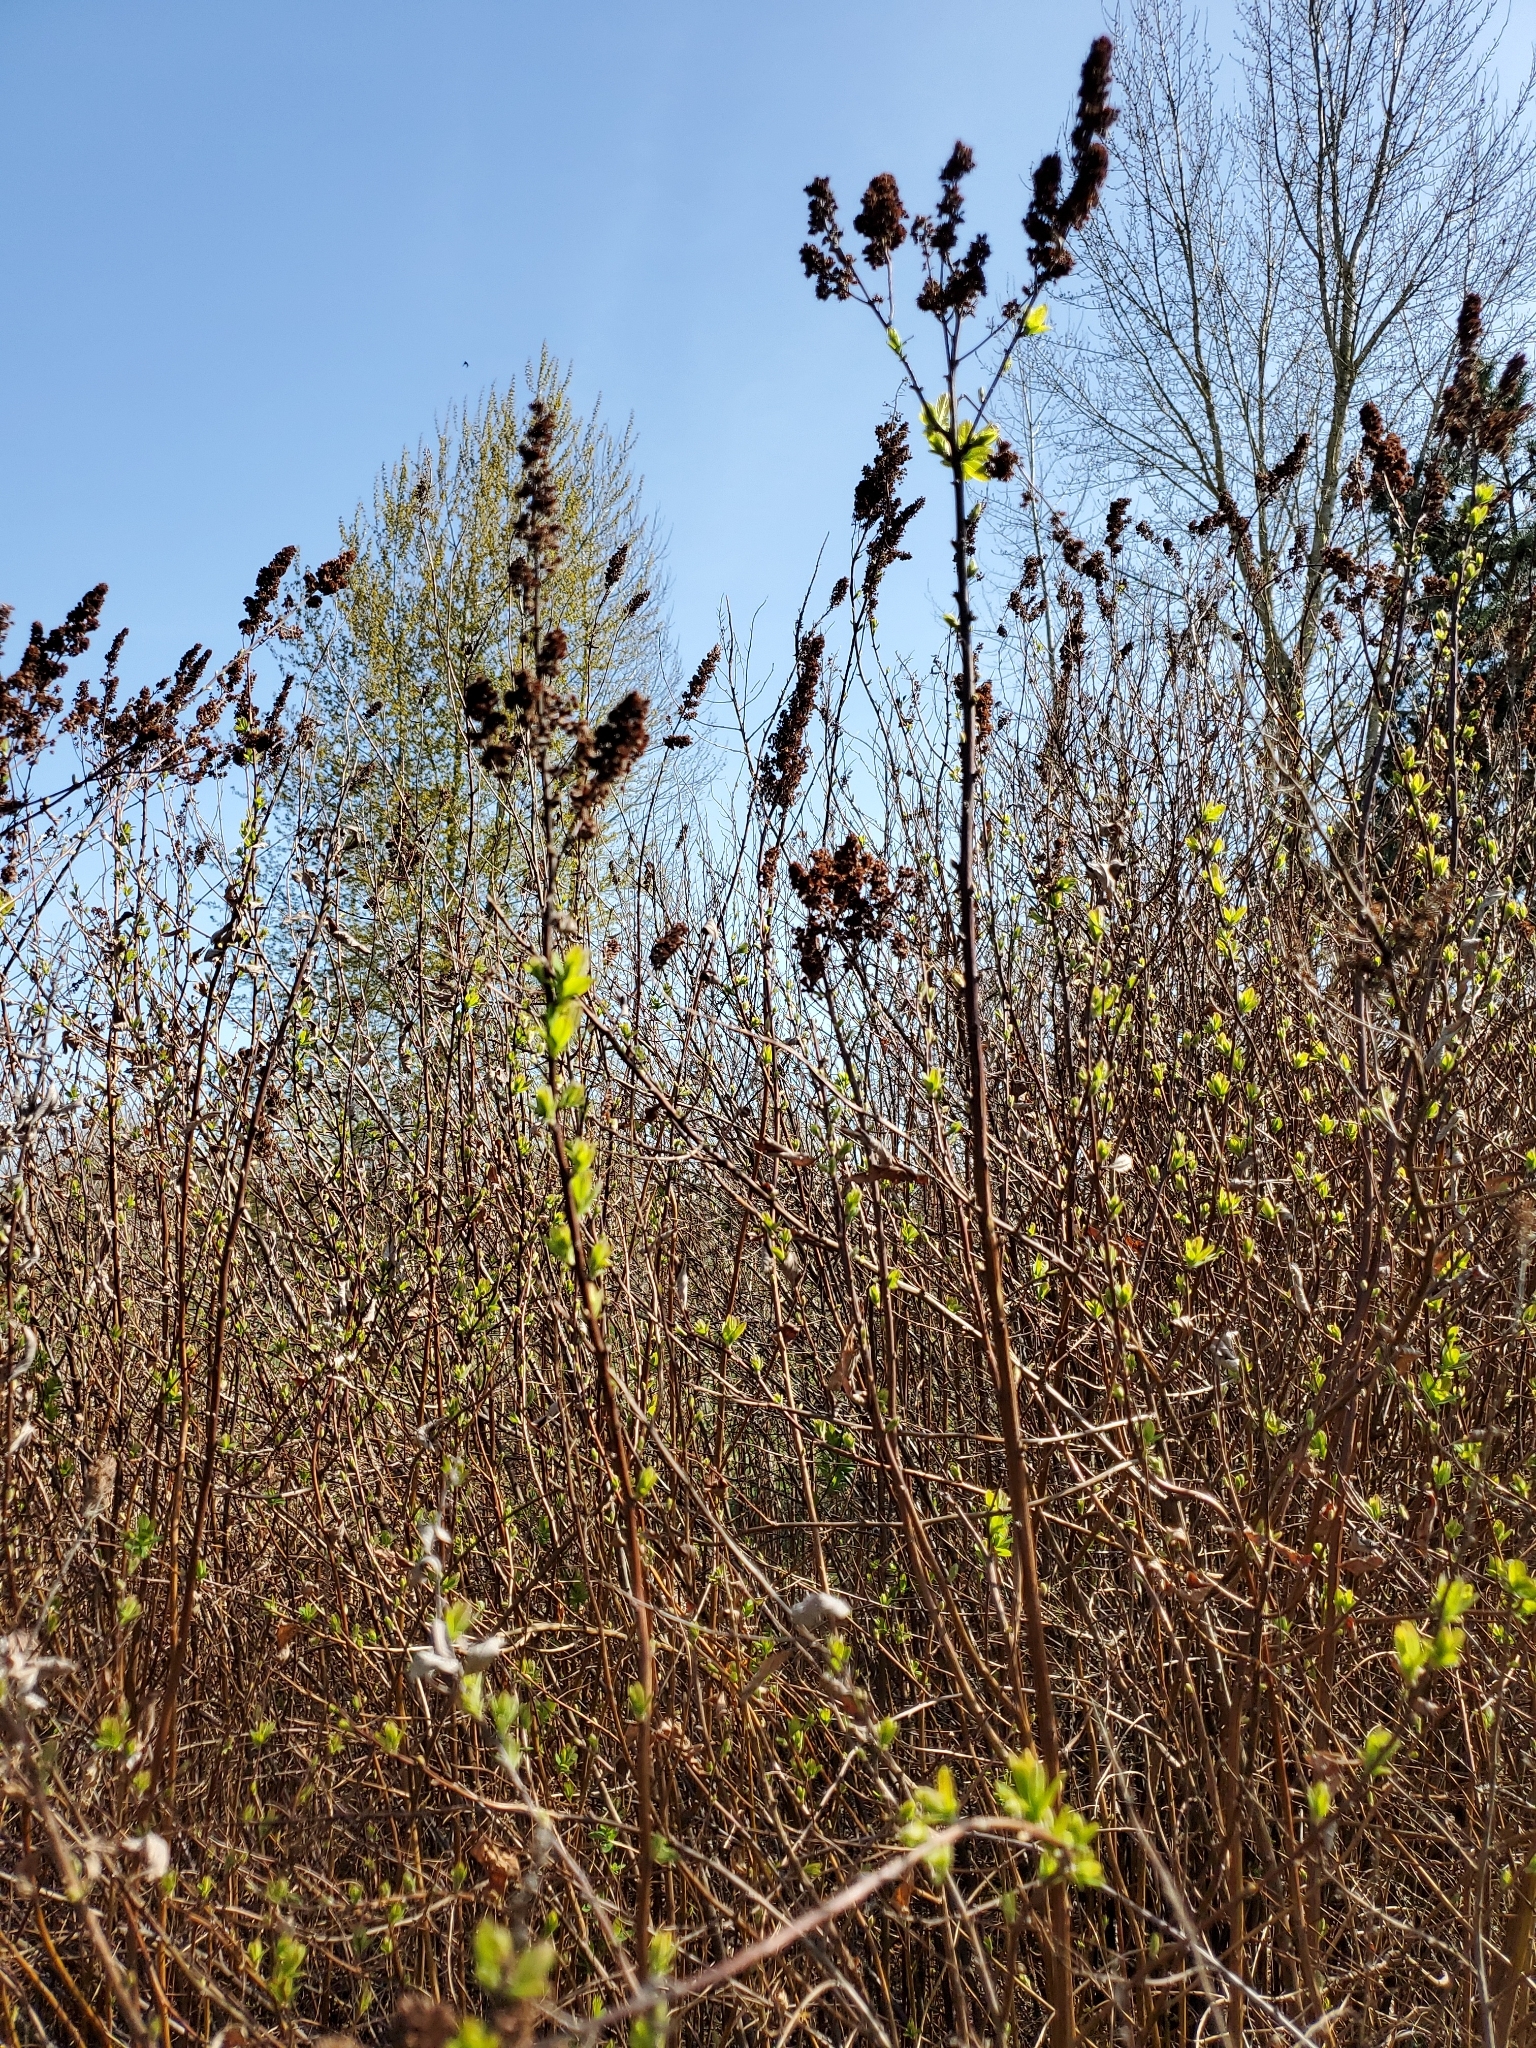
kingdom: Plantae
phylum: Tracheophyta
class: Magnoliopsida
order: Rosales
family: Rosaceae
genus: Spiraea
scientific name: Spiraea douglasii
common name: Steeplebush
